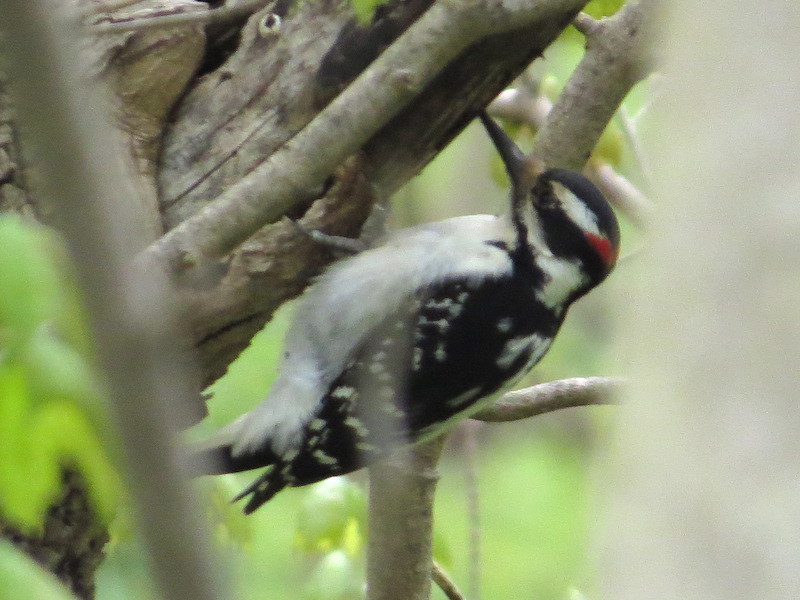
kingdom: Animalia
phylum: Chordata
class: Aves
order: Piciformes
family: Picidae
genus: Leuconotopicus
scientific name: Leuconotopicus villosus
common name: Hairy woodpecker
